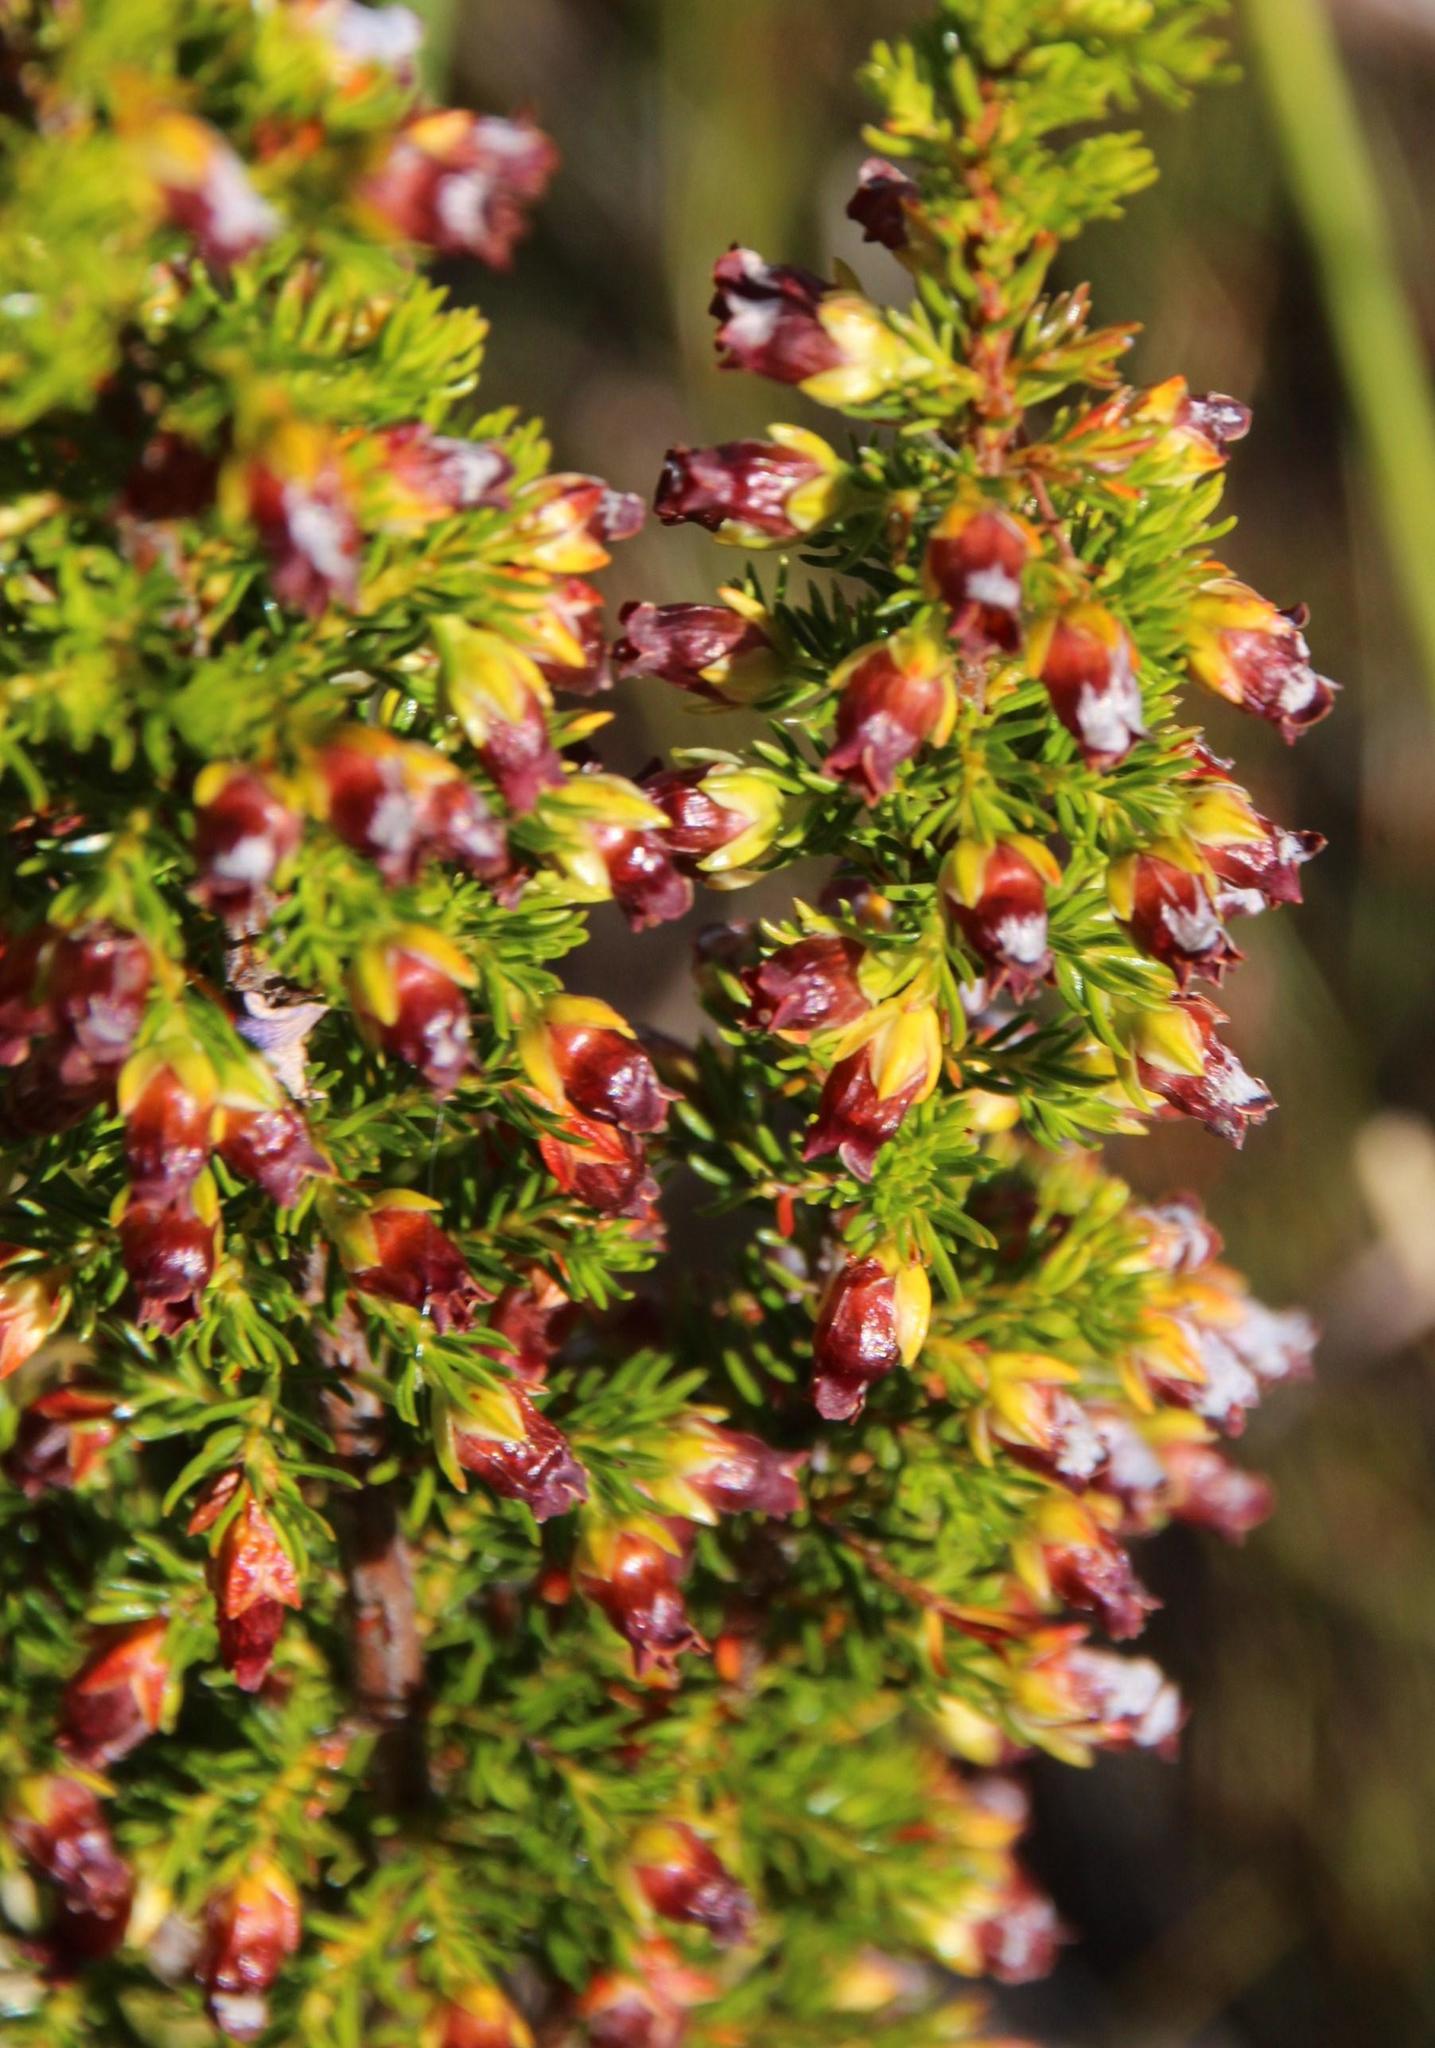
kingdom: Plantae
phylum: Tracheophyta
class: Magnoliopsida
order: Ericales
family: Ericaceae
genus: Erica
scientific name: Erica blandfordia
